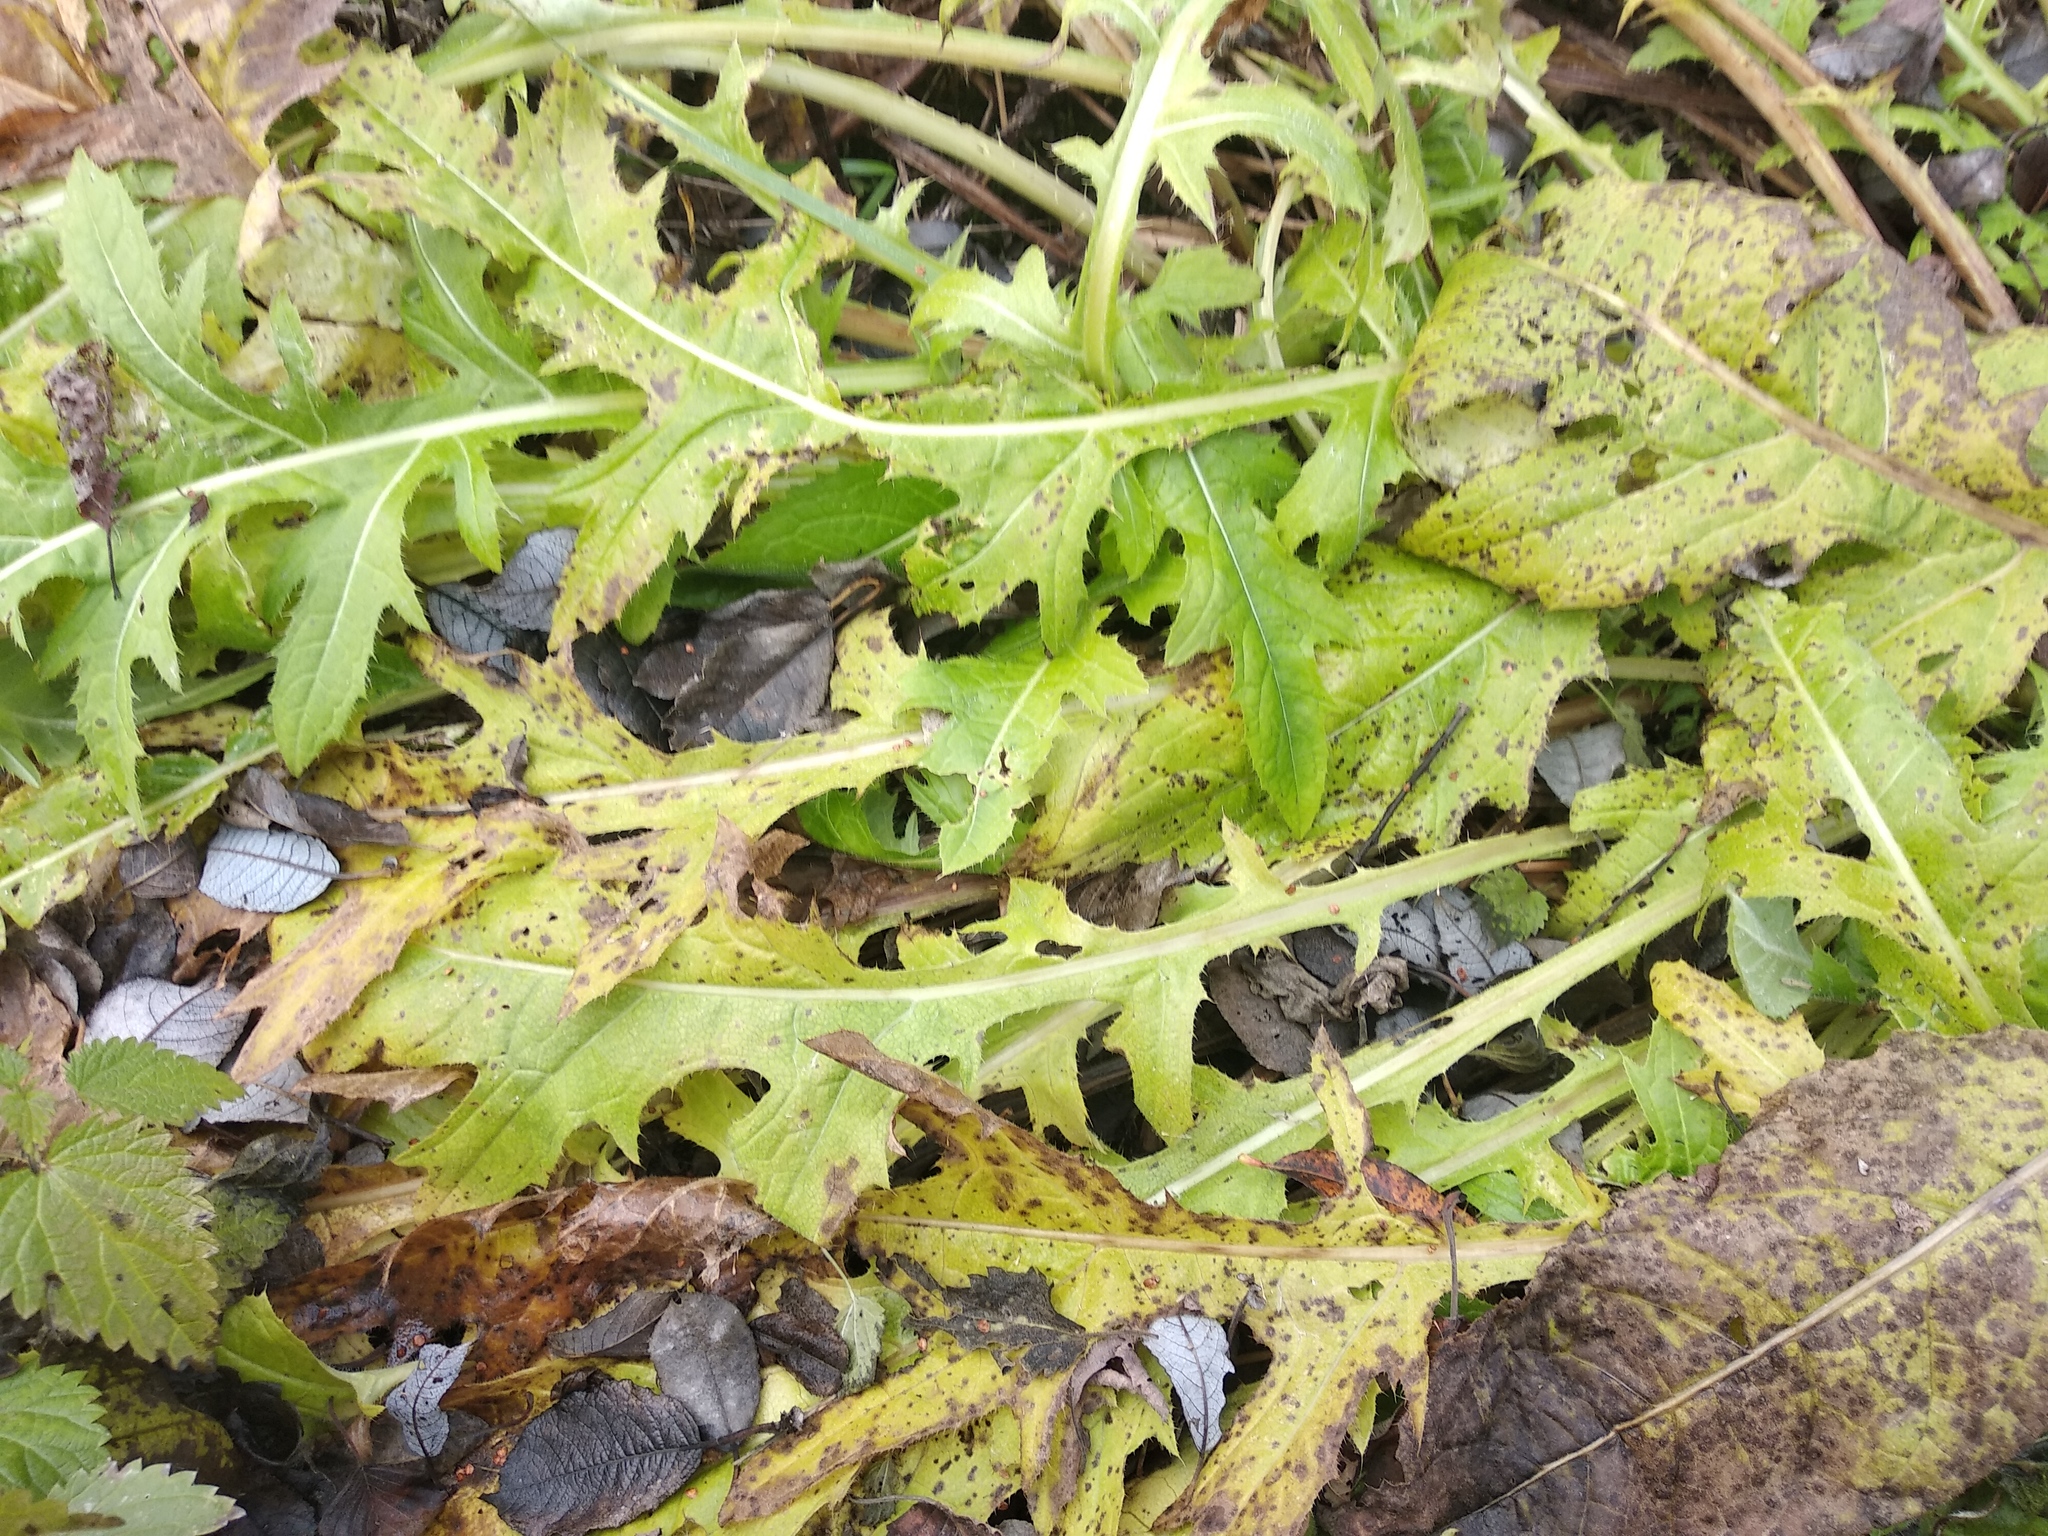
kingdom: Plantae
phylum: Tracheophyta
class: Magnoliopsida
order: Asterales
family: Asteraceae
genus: Cirsium
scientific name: Cirsium oleraceum
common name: Cabbage thistle
